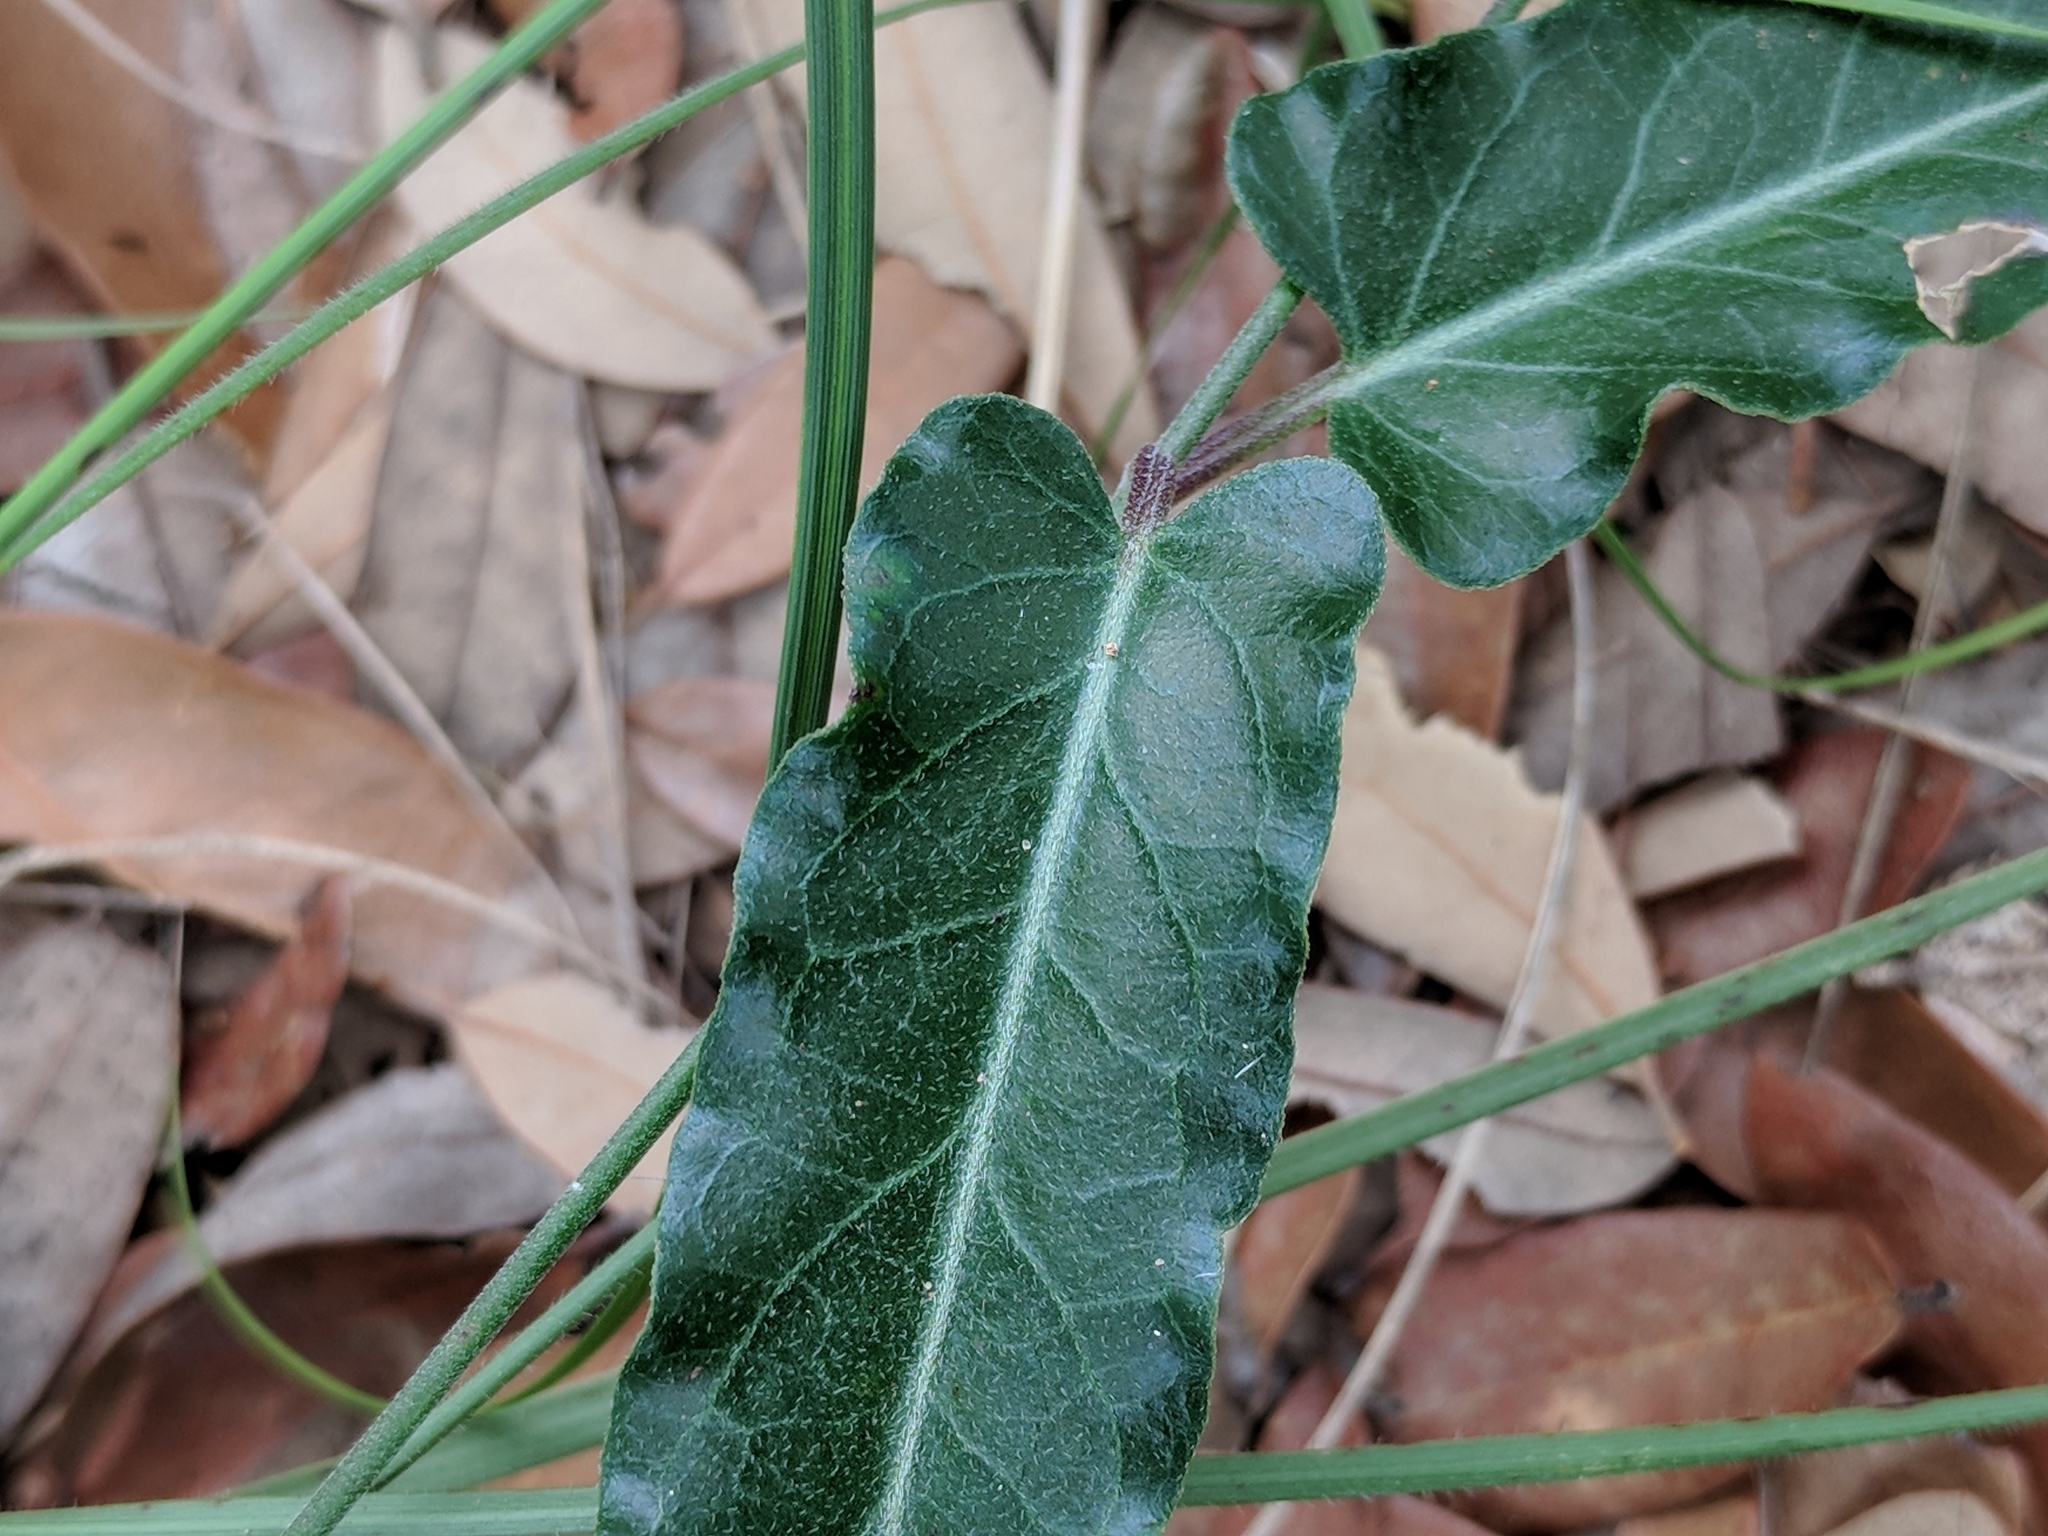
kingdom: Plantae
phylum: Tracheophyta
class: Magnoliopsida
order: Gentianales
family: Apocynaceae
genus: Funastrum
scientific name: Funastrum crispum
